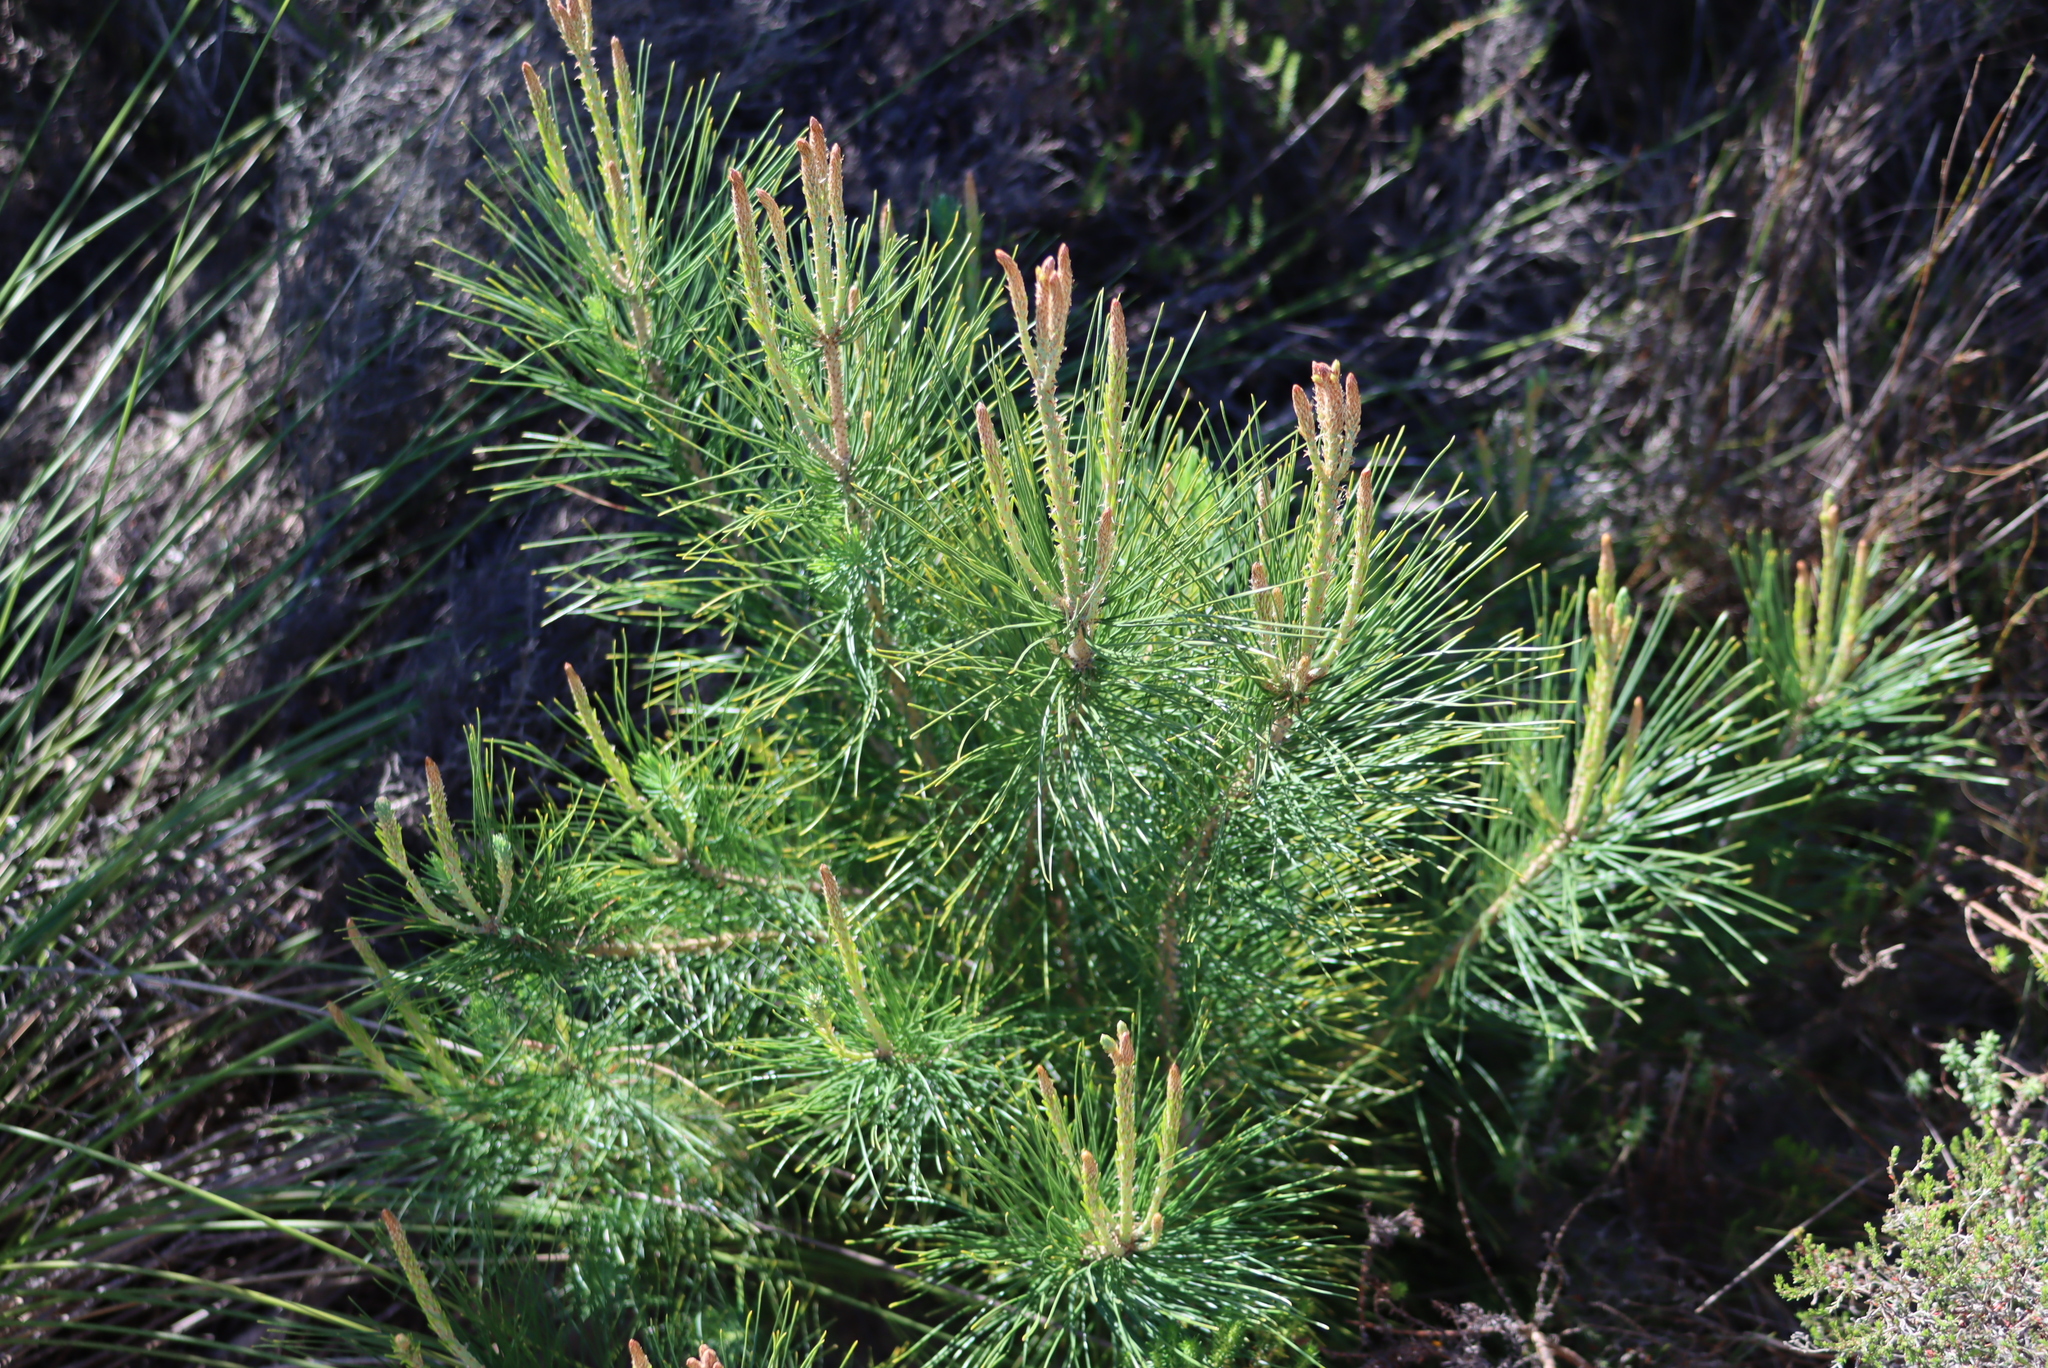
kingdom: Plantae
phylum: Tracheophyta
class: Pinopsida
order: Pinales
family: Pinaceae
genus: Pinus
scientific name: Pinus radiata
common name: Monterey pine
